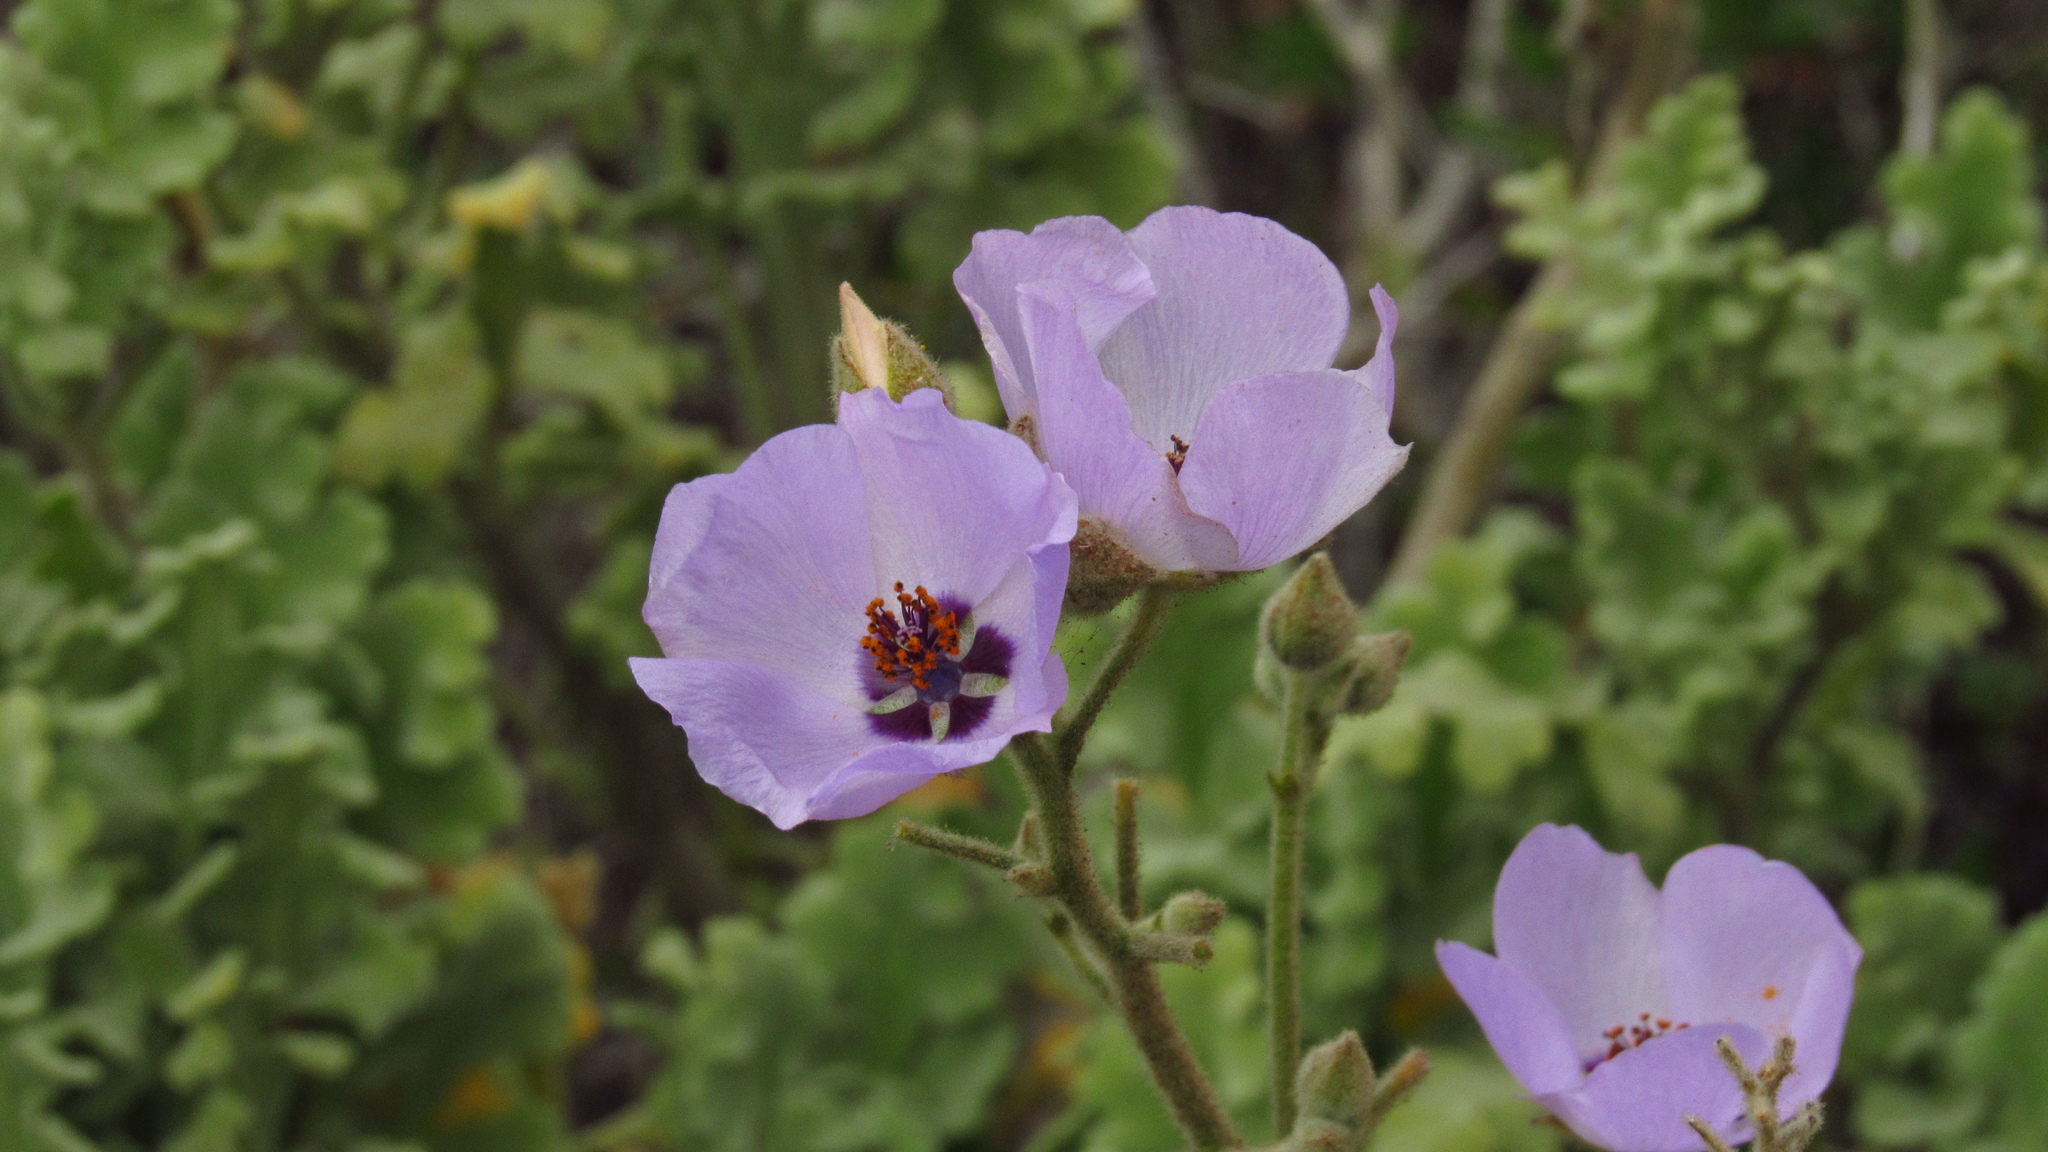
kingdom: Plantae
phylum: Tracheophyta
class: Magnoliopsida
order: Malvales
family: Malvaceae
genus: Cristaria
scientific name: Cristaria glaucophylla
